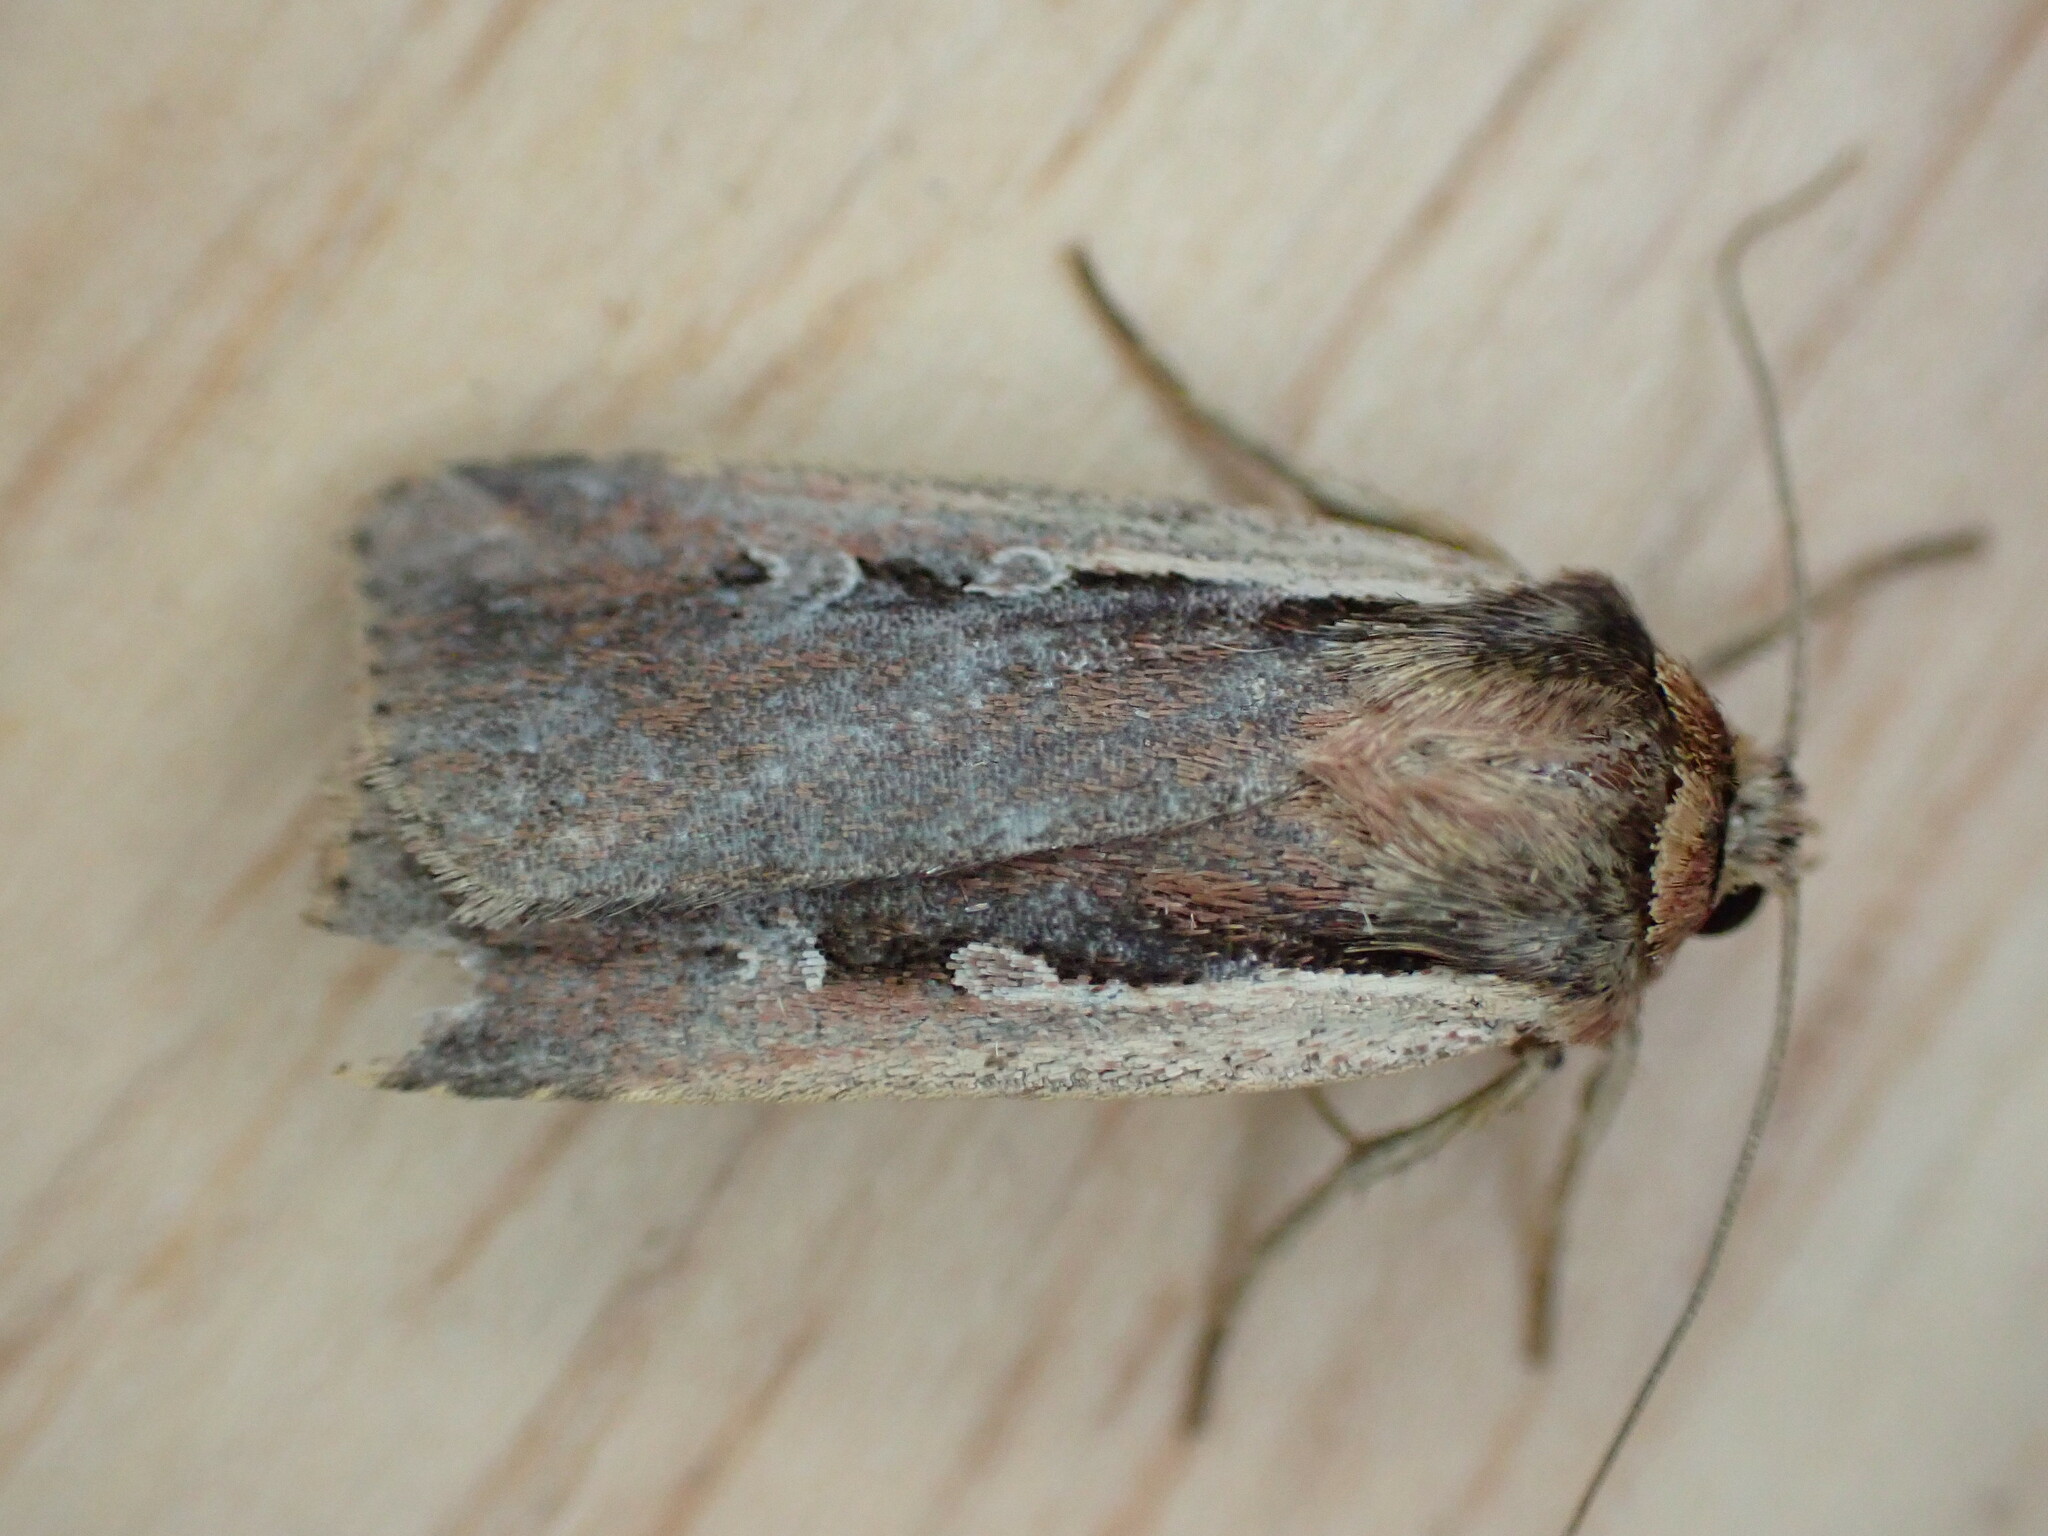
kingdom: Animalia
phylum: Arthropoda
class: Insecta
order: Lepidoptera
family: Noctuidae
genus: Ochropleura
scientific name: Ochropleura plecta
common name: Flame shoulder
